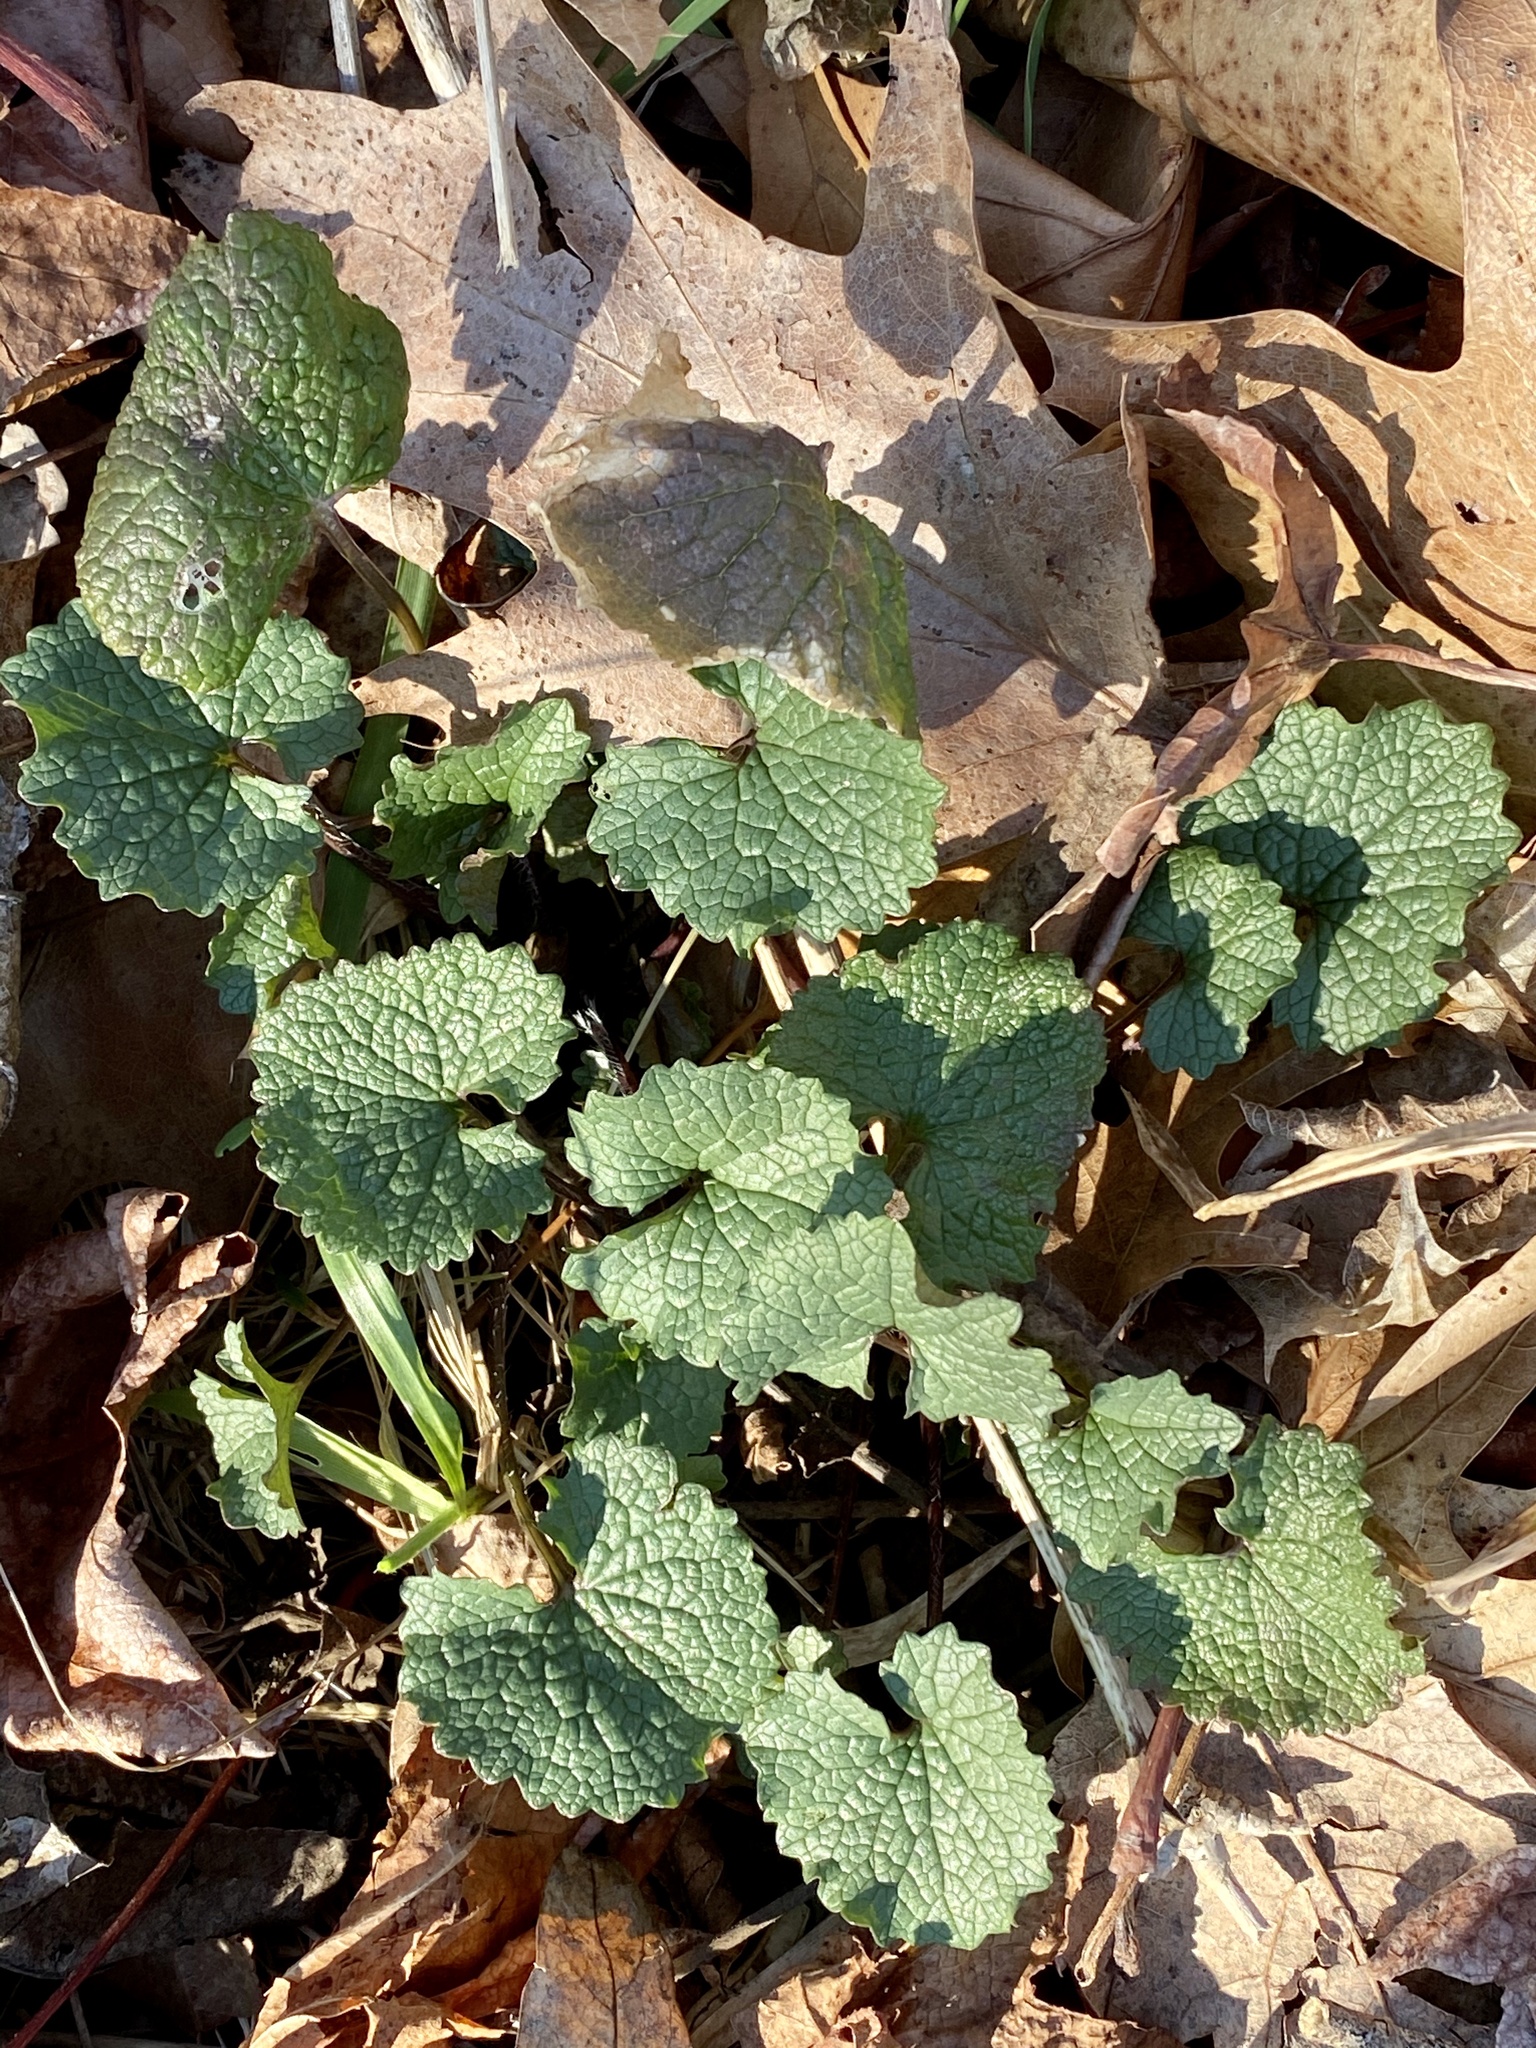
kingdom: Plantae
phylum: Tracheophyta
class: Magnoliopsida
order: Brassicales
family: Brassicaceae
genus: Alliaria
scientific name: Alliaria petiolata
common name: Garlic mustard
